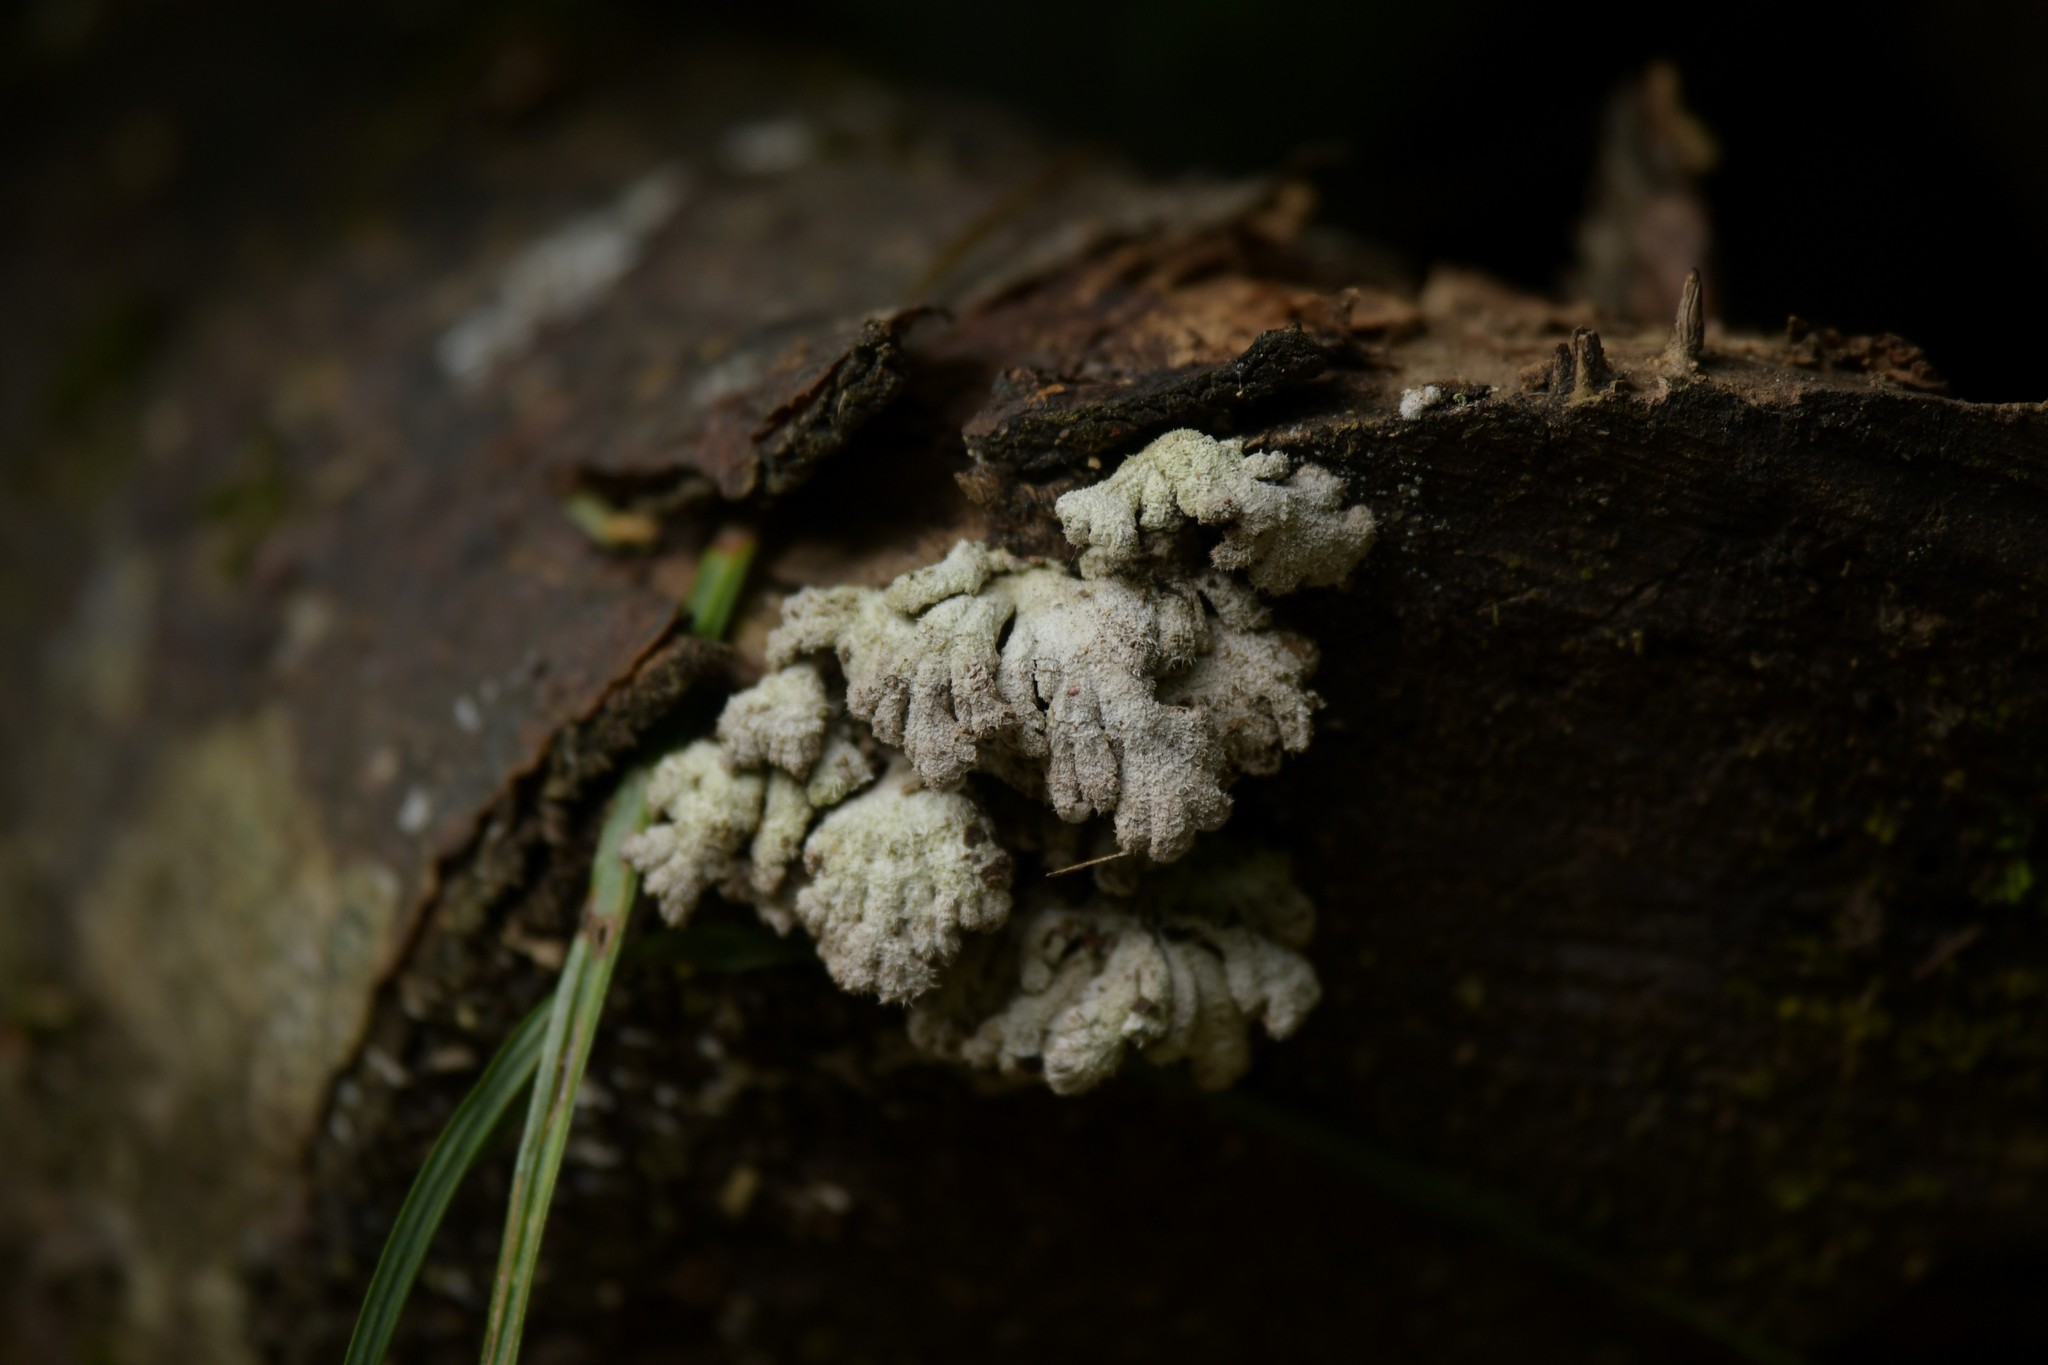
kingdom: Fungi
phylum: Basidiomycota
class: Agaricomycetes
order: Agaricales
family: Schizophyllaceae
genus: Schizophyllum
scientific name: Schizophyllum commune
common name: Common porecrust
